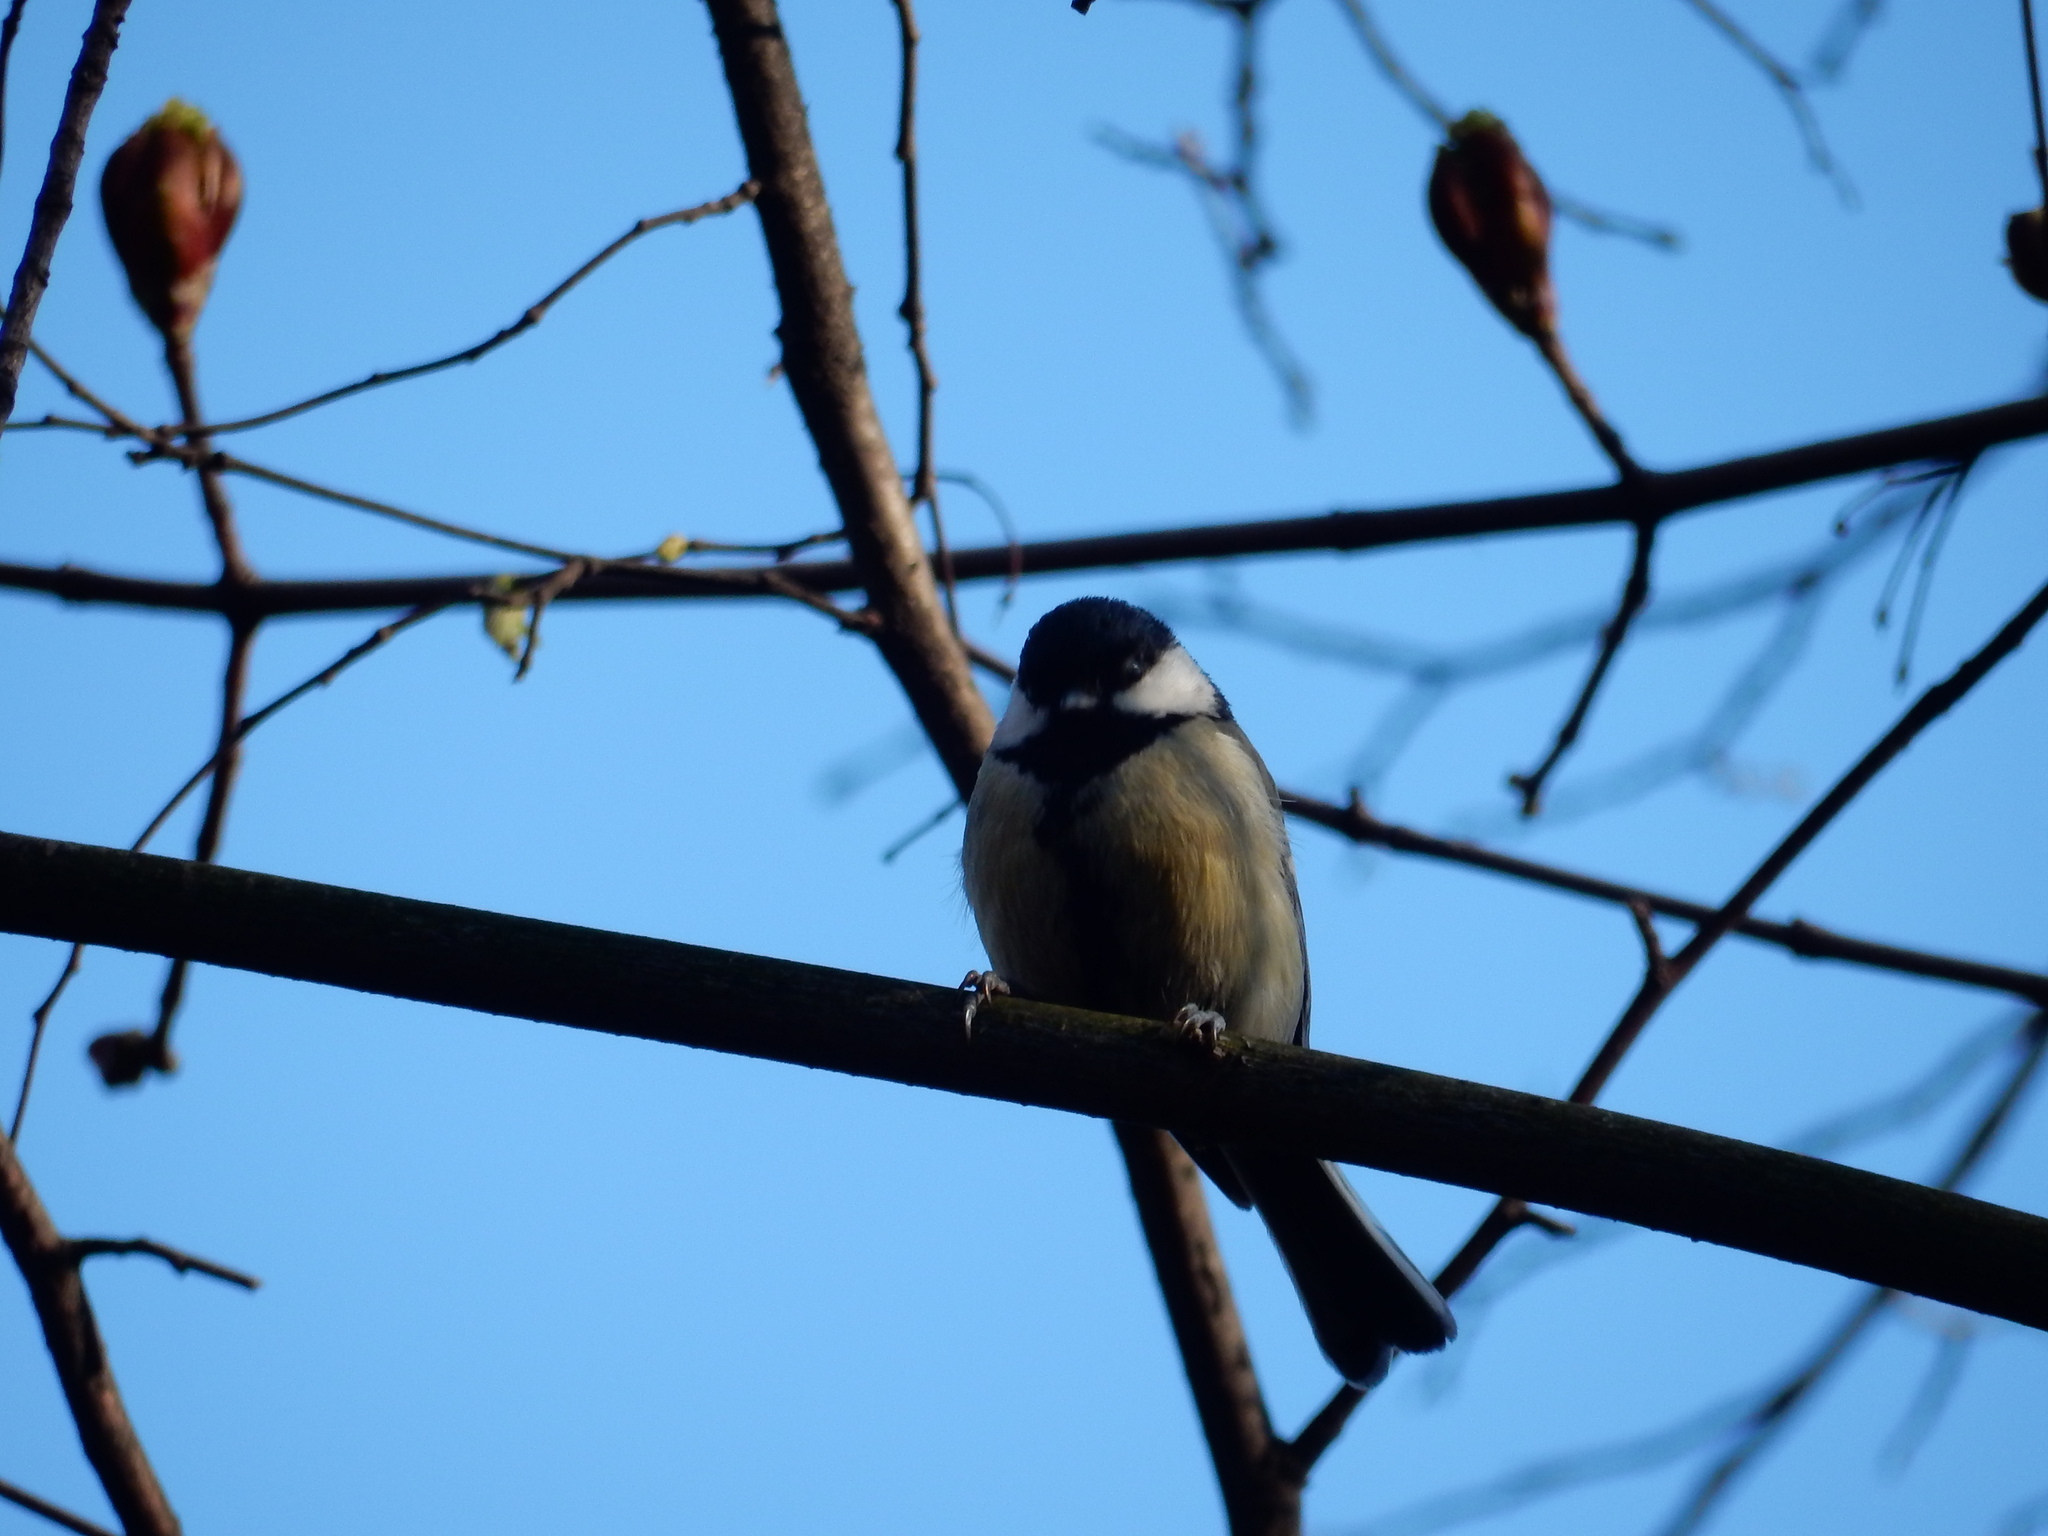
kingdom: Animalia
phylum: Chordata
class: Aves
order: Passeriformes
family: Paridae
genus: Parus
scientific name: Parus major
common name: Great tit
